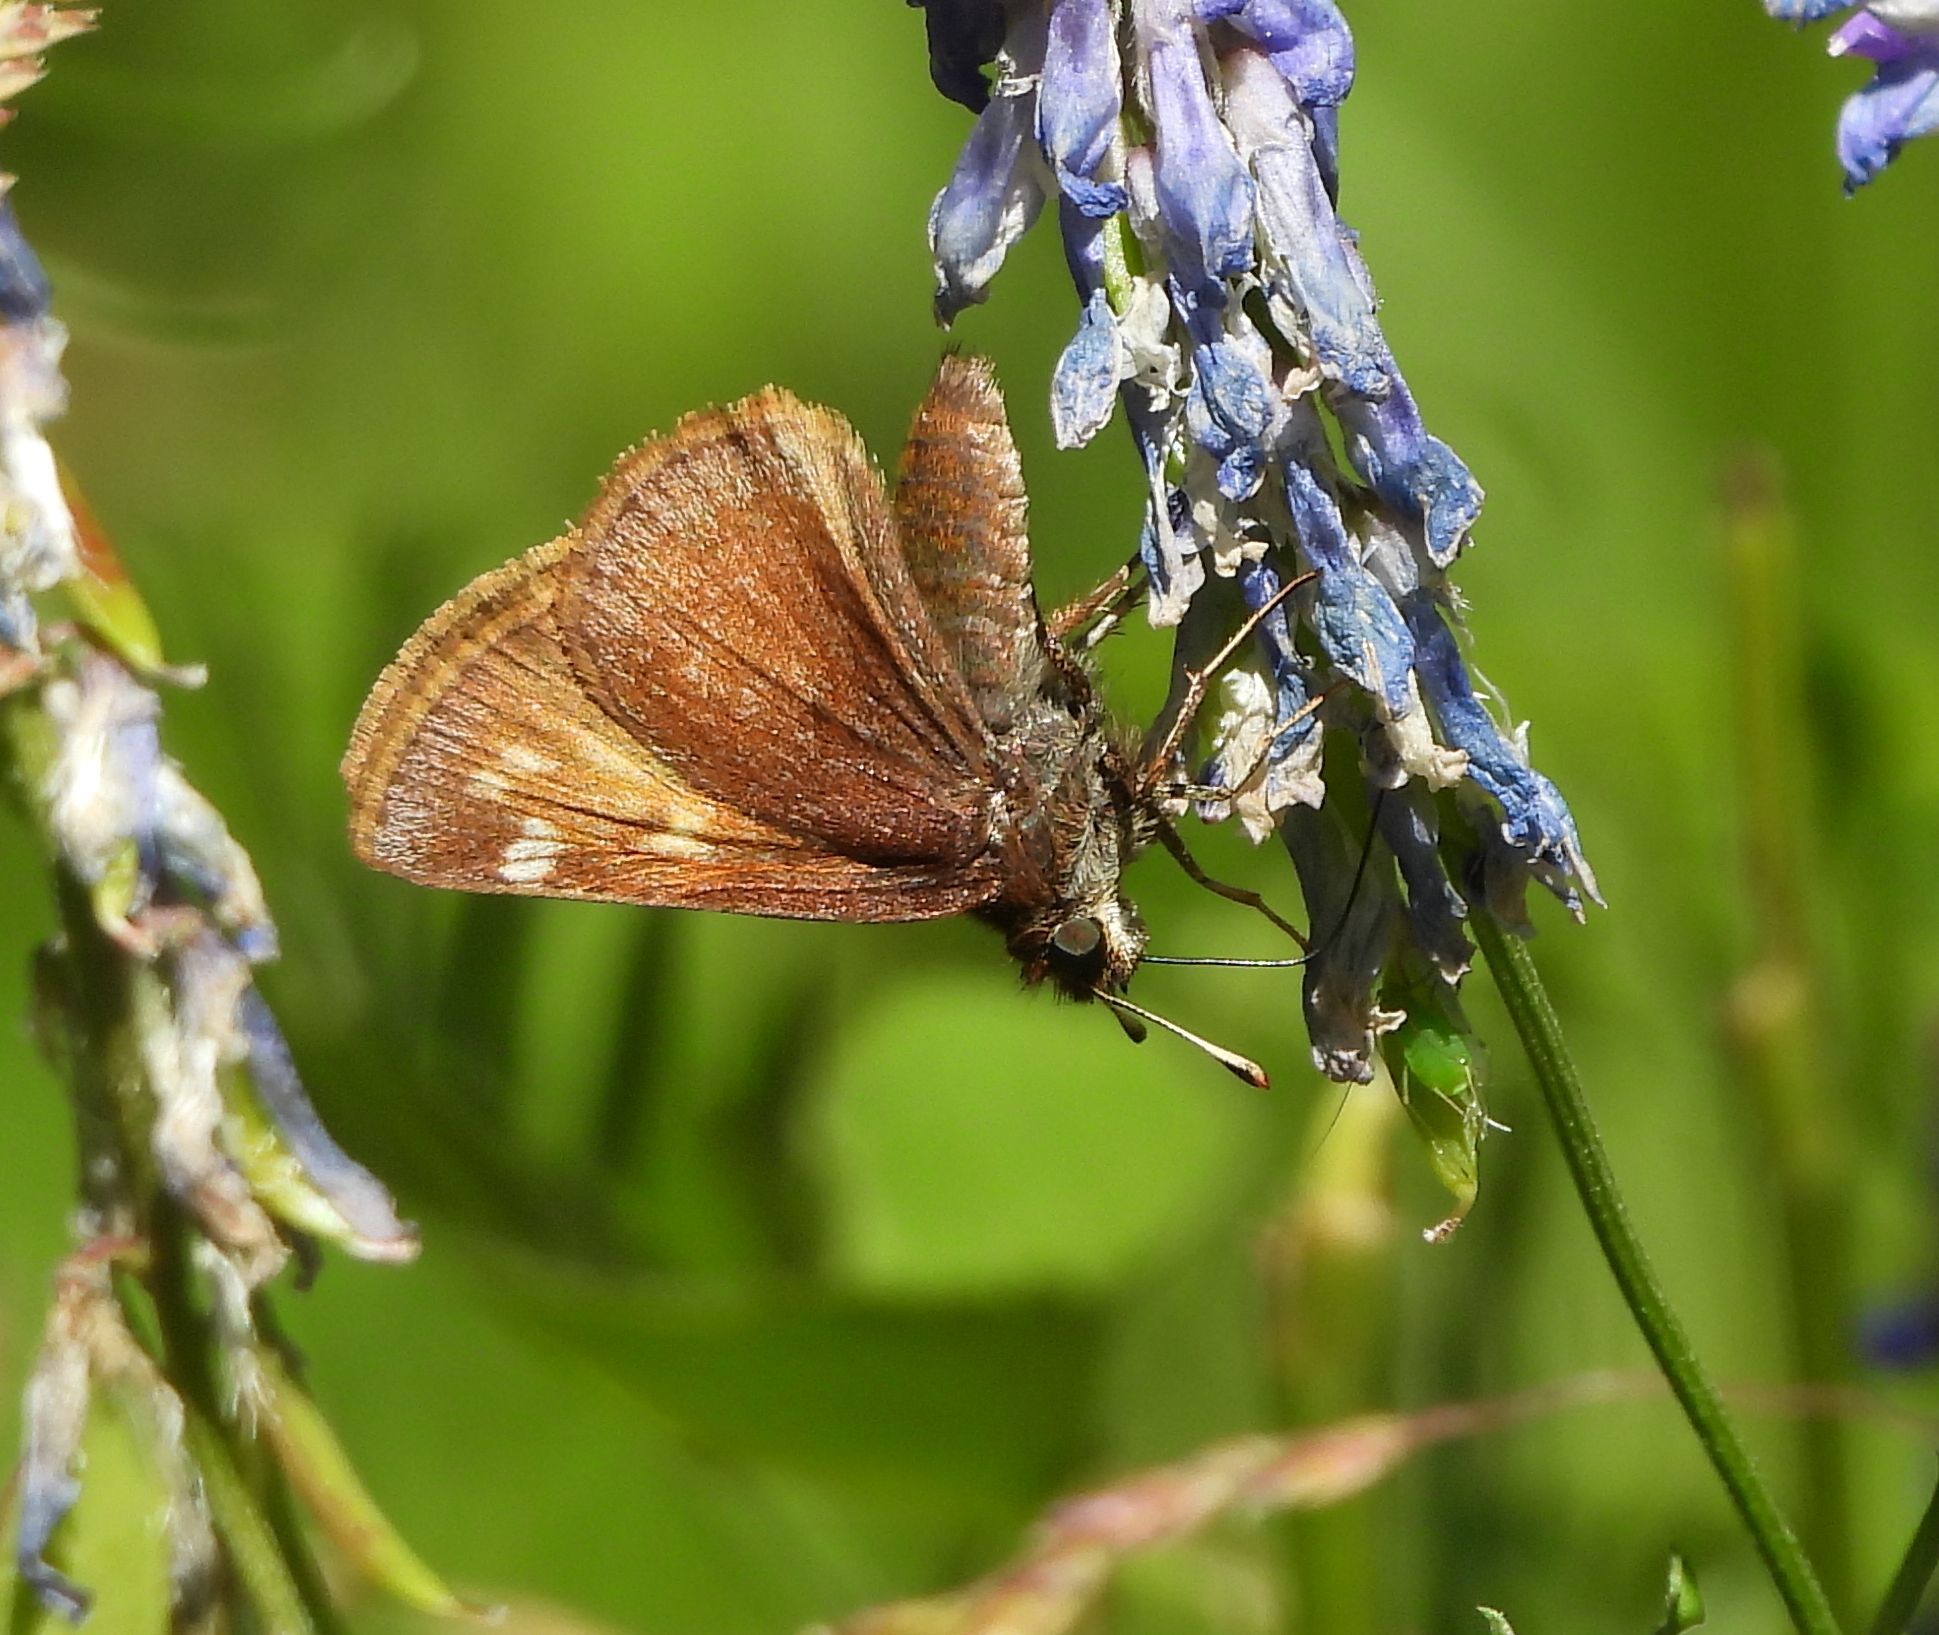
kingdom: Animalia
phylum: Arthropoda
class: Insecta
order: Lepidoptera
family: Hesperiidae
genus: Lon
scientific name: Lon hobomok
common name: Hobomok skipper
